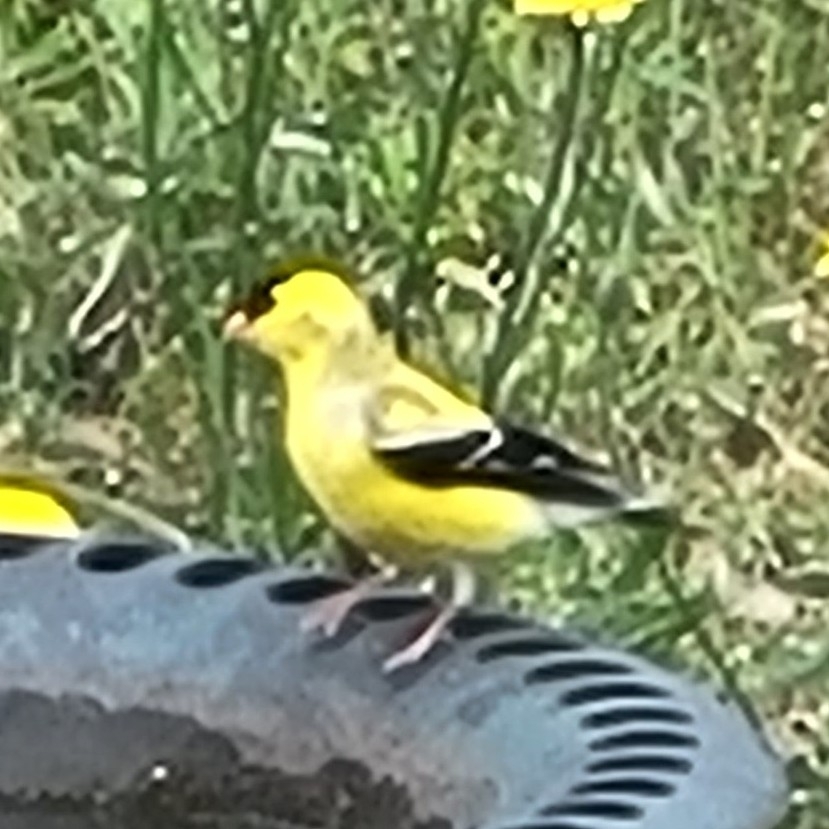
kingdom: Animalia
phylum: Chordata
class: Aves
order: Passeriformes
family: Fringillidae
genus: Spinus
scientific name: Spinus tristis
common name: American goldfinch
